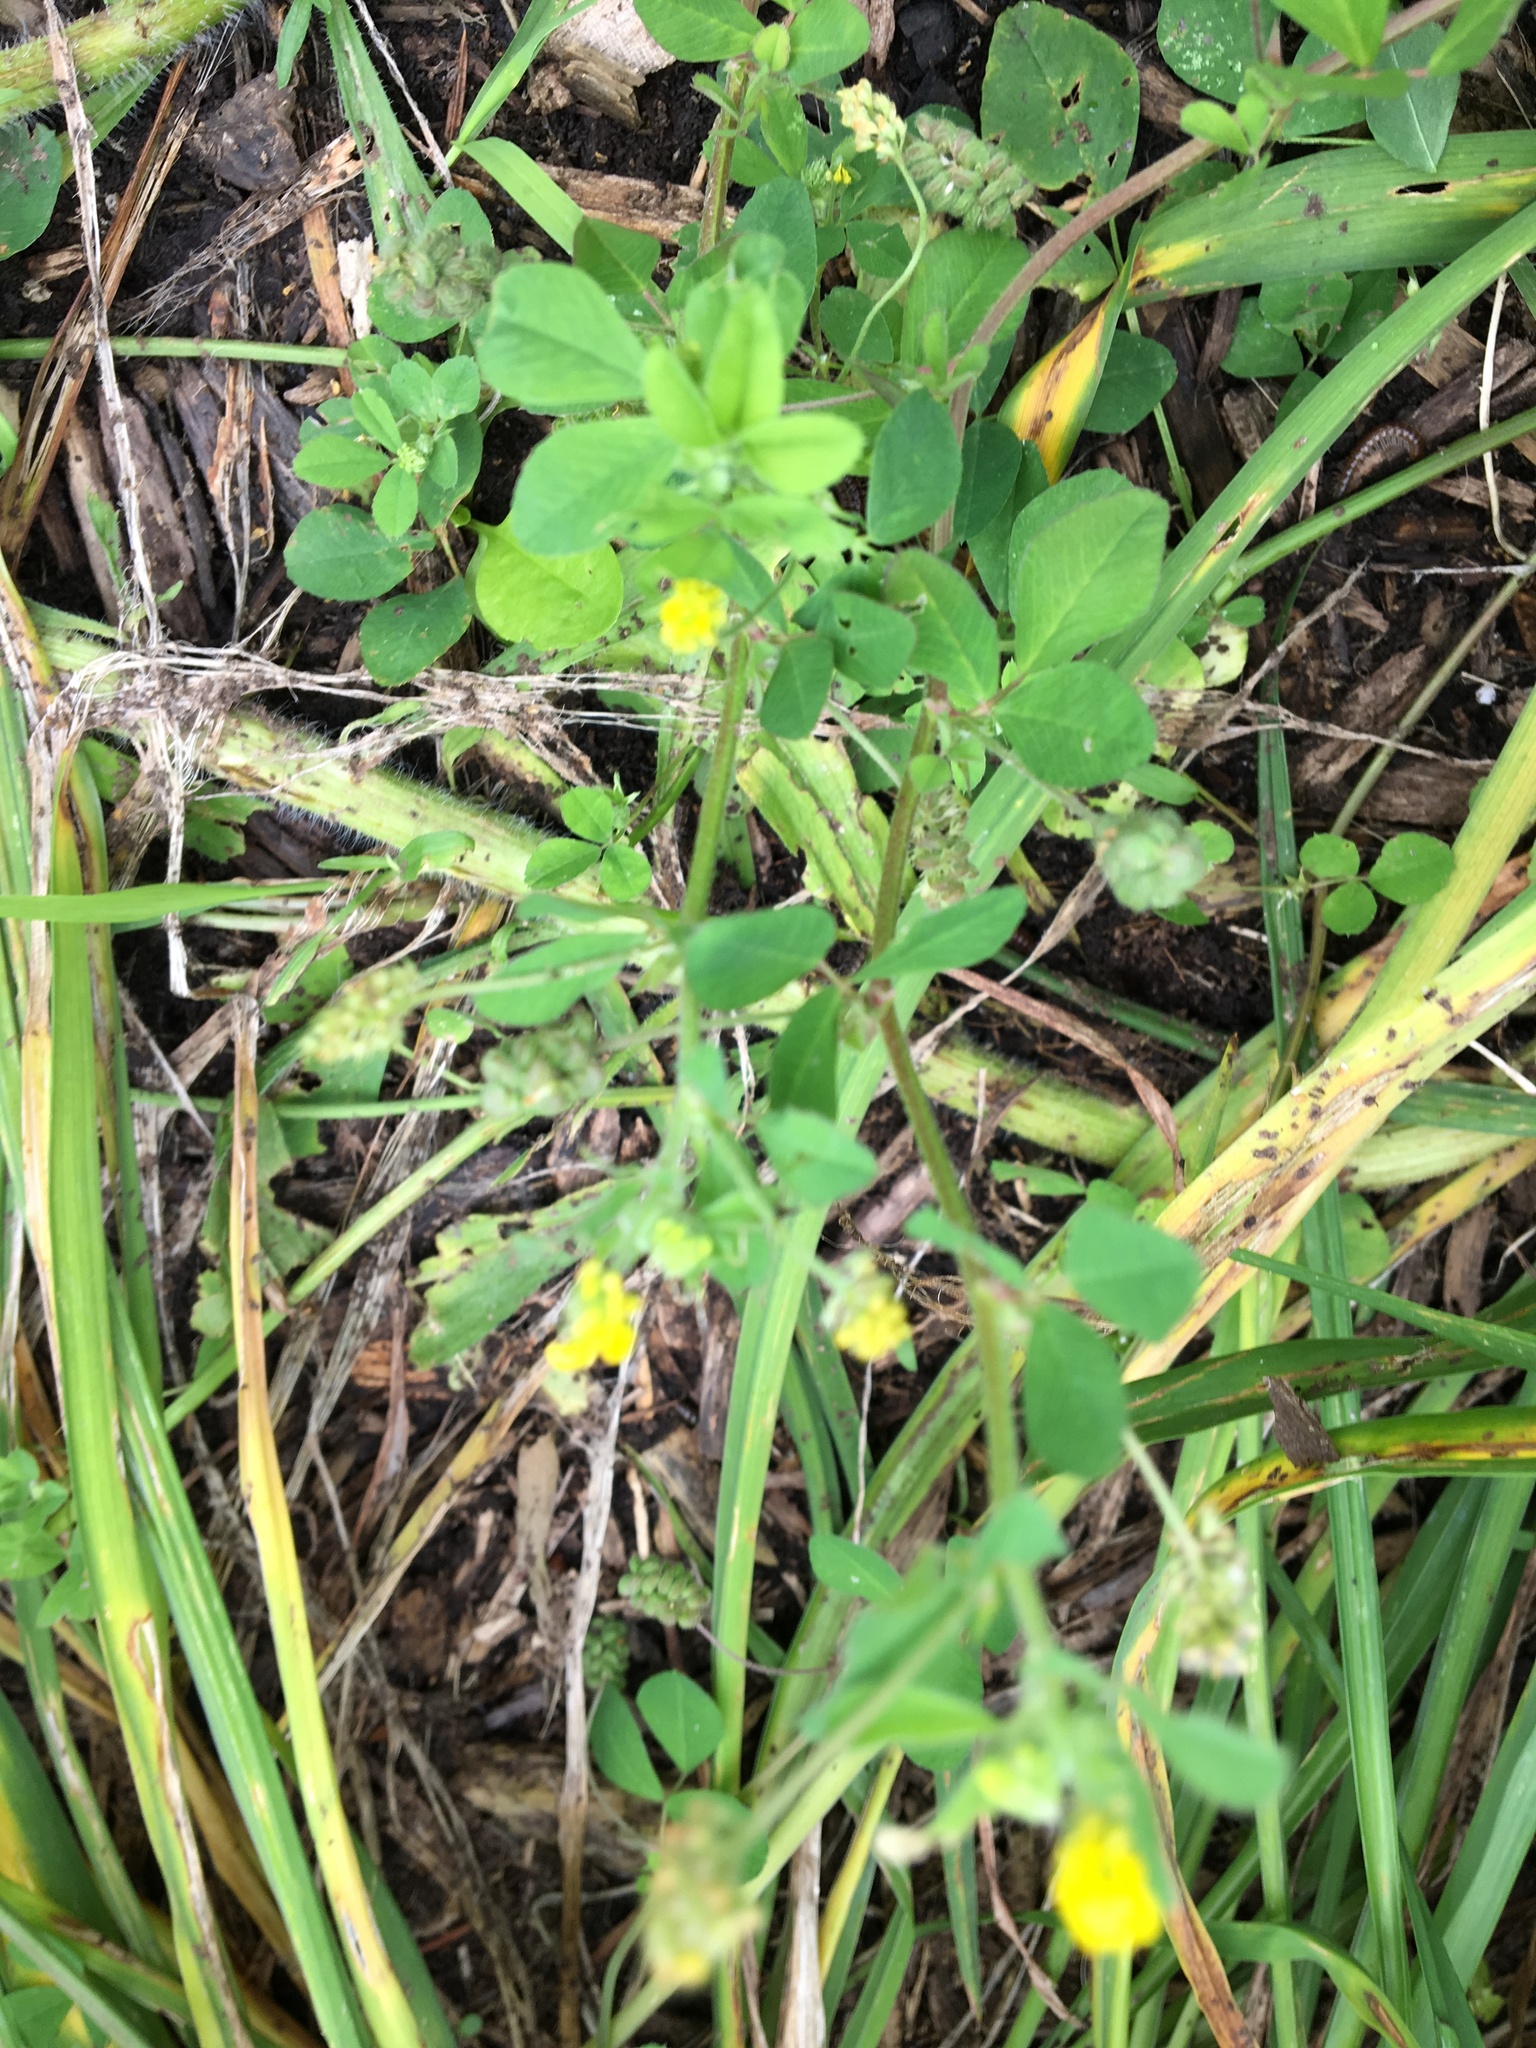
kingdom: Plantae
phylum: Tracheophyta
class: Magnoliopsida
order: Fabales
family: Fabaceae
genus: Medicago
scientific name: Medicago lupulina
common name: Black medick
